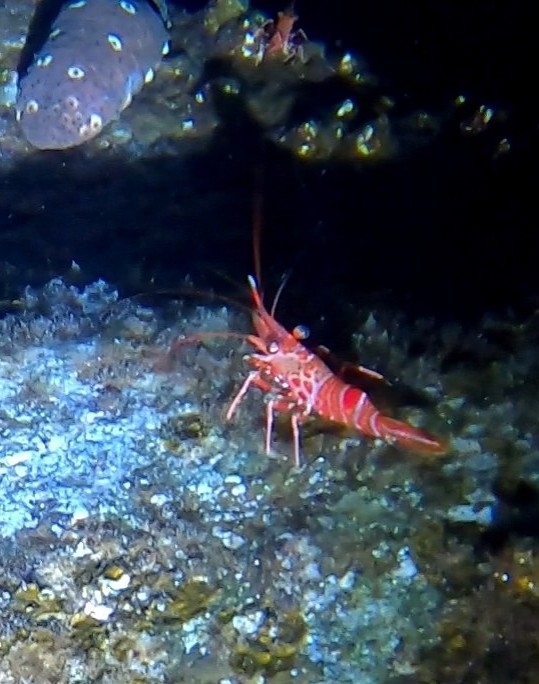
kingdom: Animalia
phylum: Arthropoda
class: Malacostraca
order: Decapoda
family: Rhynchocinetidae
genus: Cinetorhynchus
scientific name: Cinetorhynchus rigens
